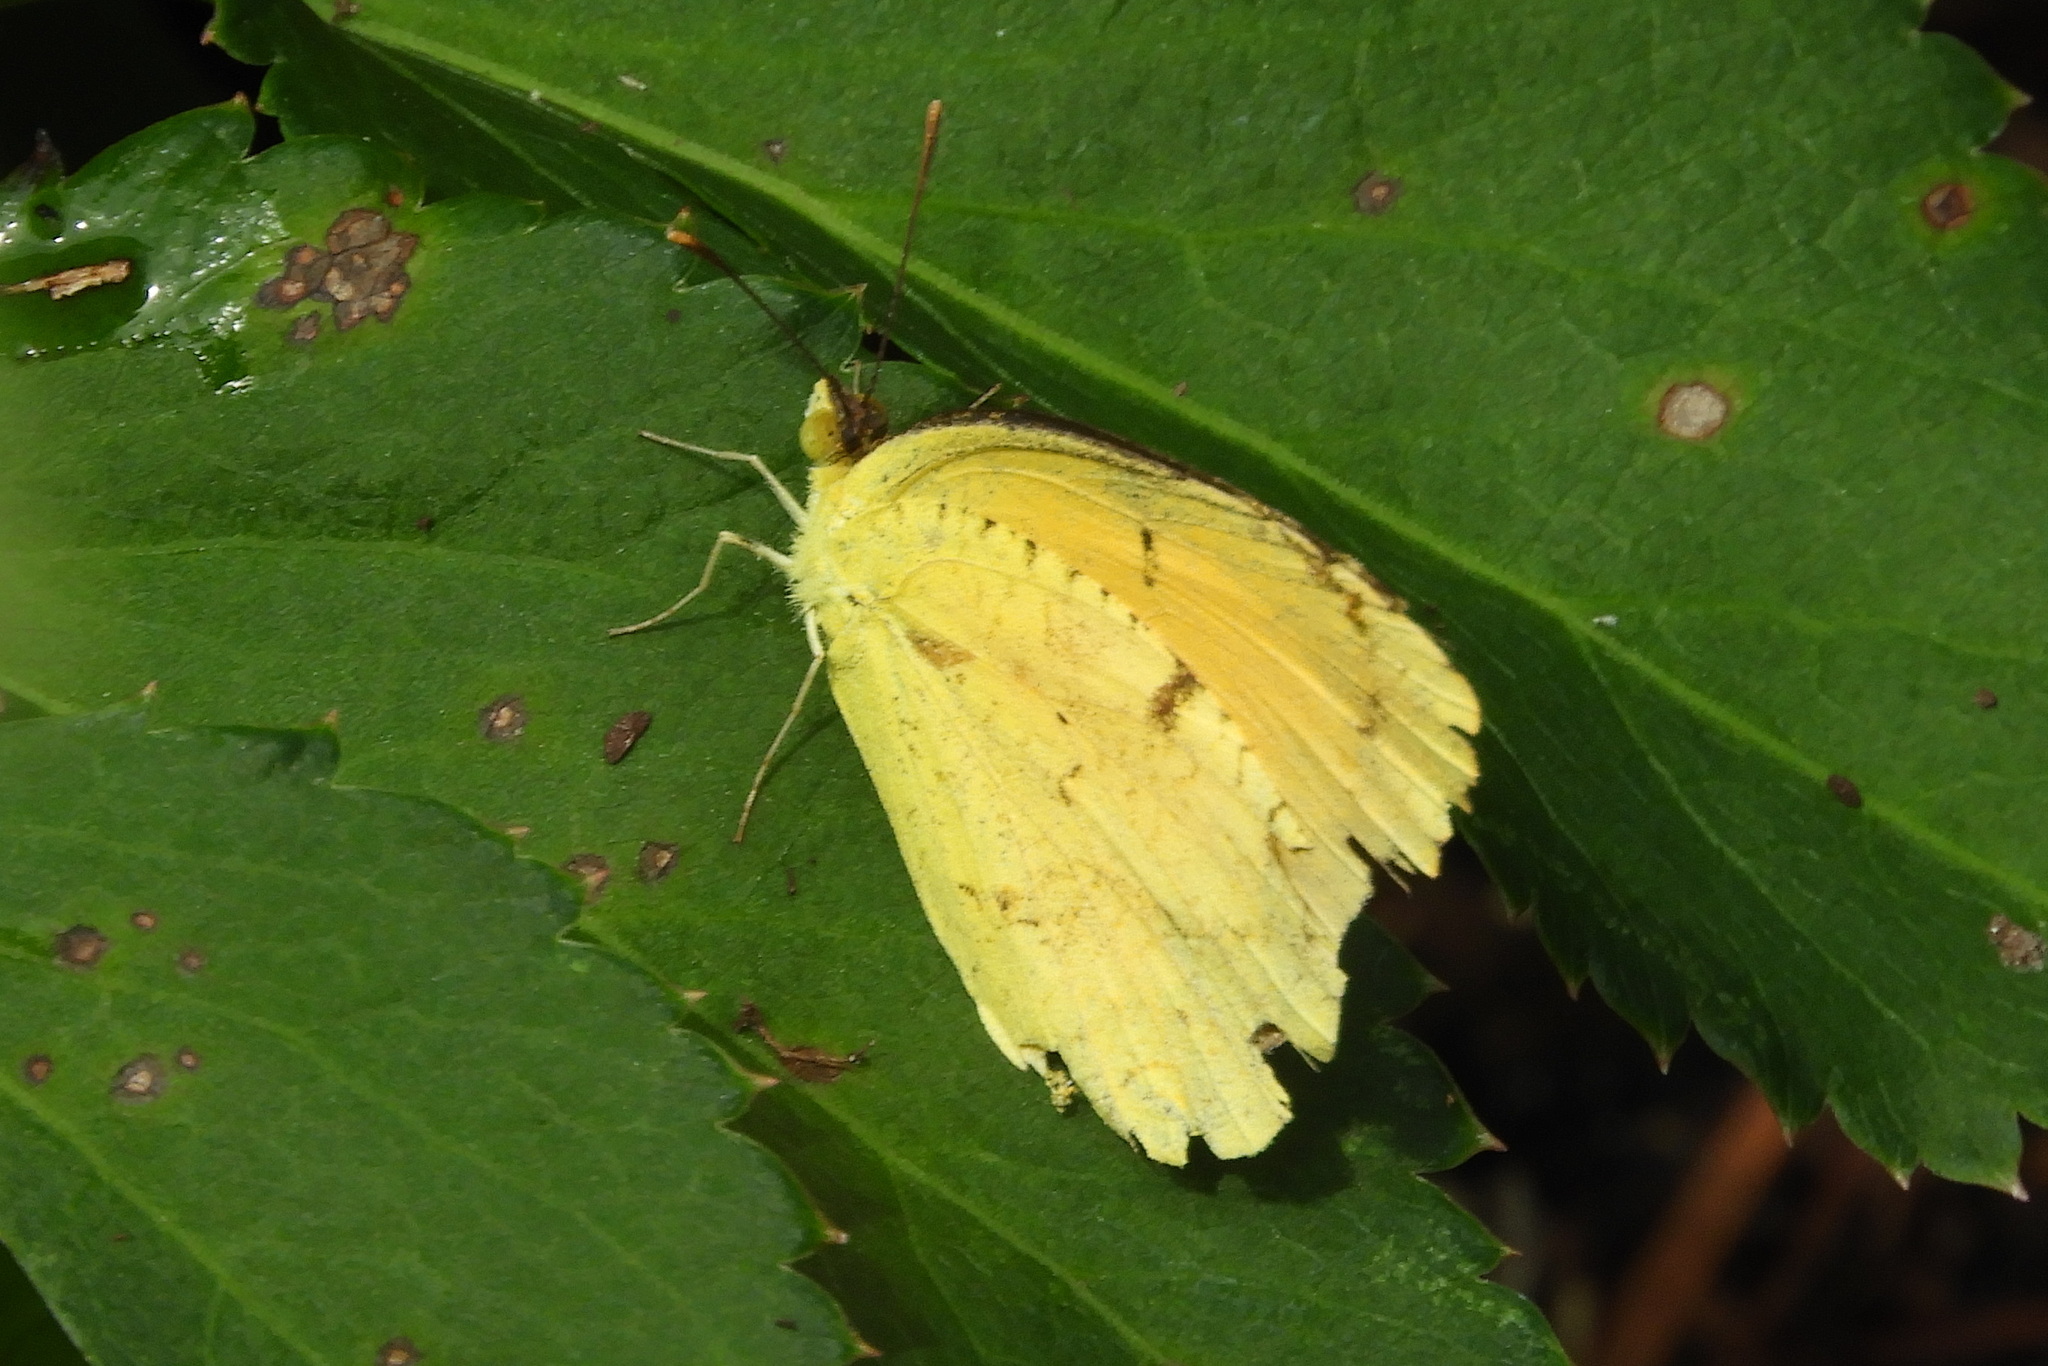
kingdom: Animalia
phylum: Arthropoda
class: Insecta
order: Lepidoptera
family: Pieridae
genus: Abaeis
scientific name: Abaeis nicippe
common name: Sleepy orange
